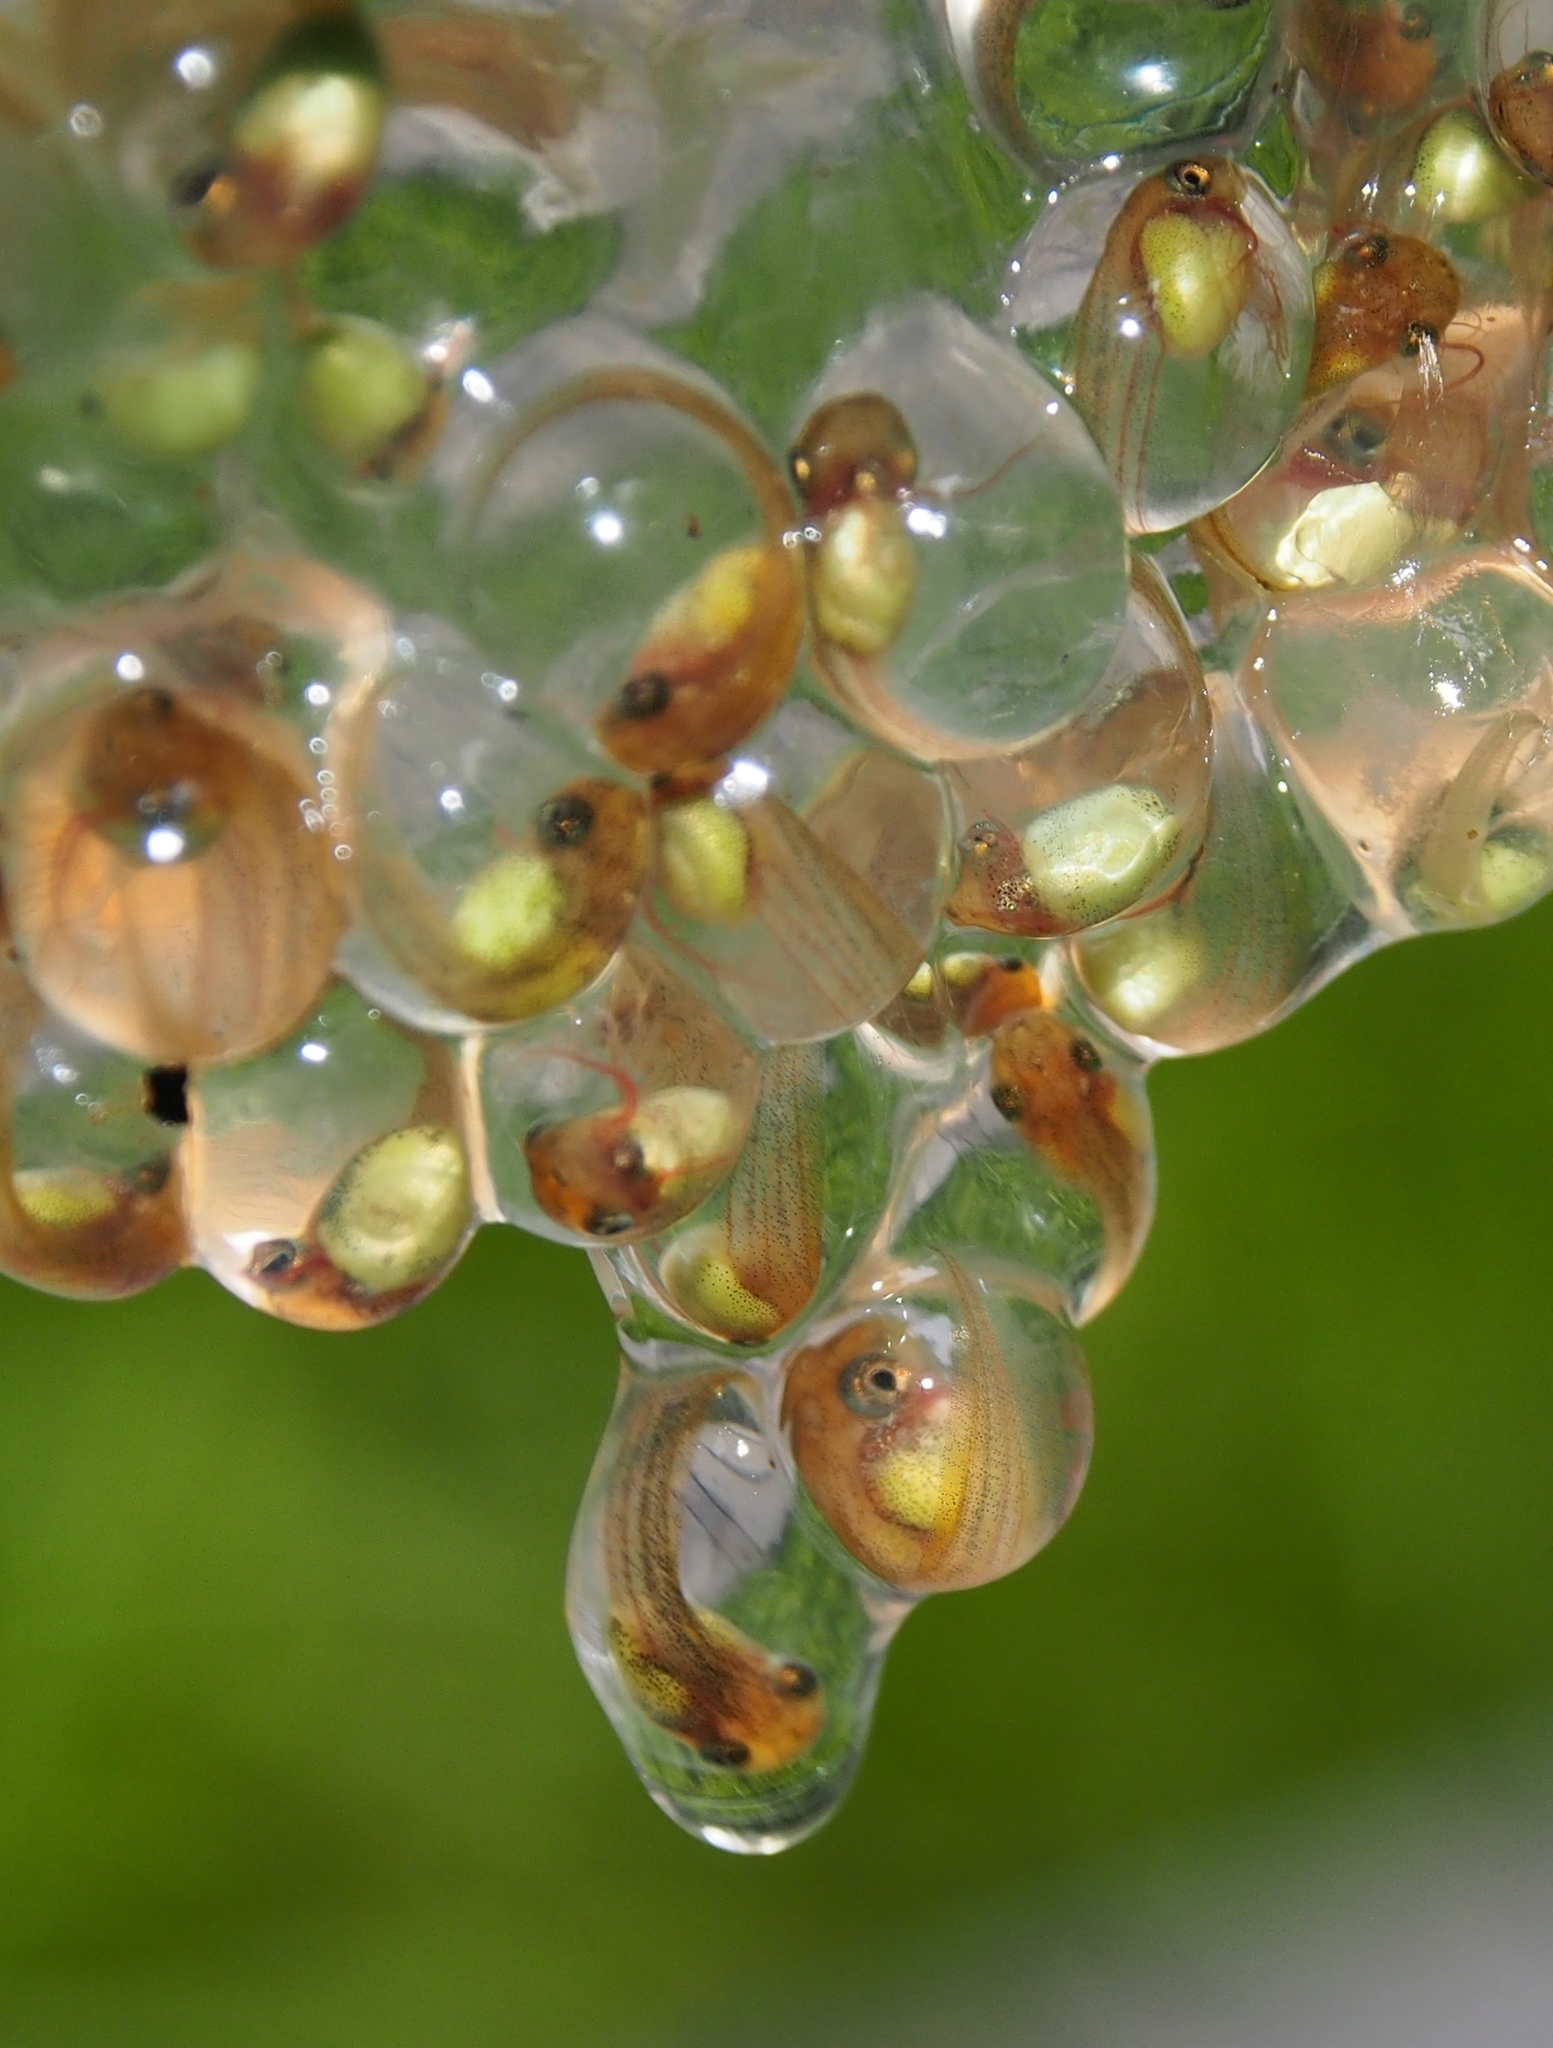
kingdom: Animalia
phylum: Chordata
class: Amphibia
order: Anura
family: Phyllomedusidae
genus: Agalychnis
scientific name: Agalychnis callidryas
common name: Red-eyed treefrog
